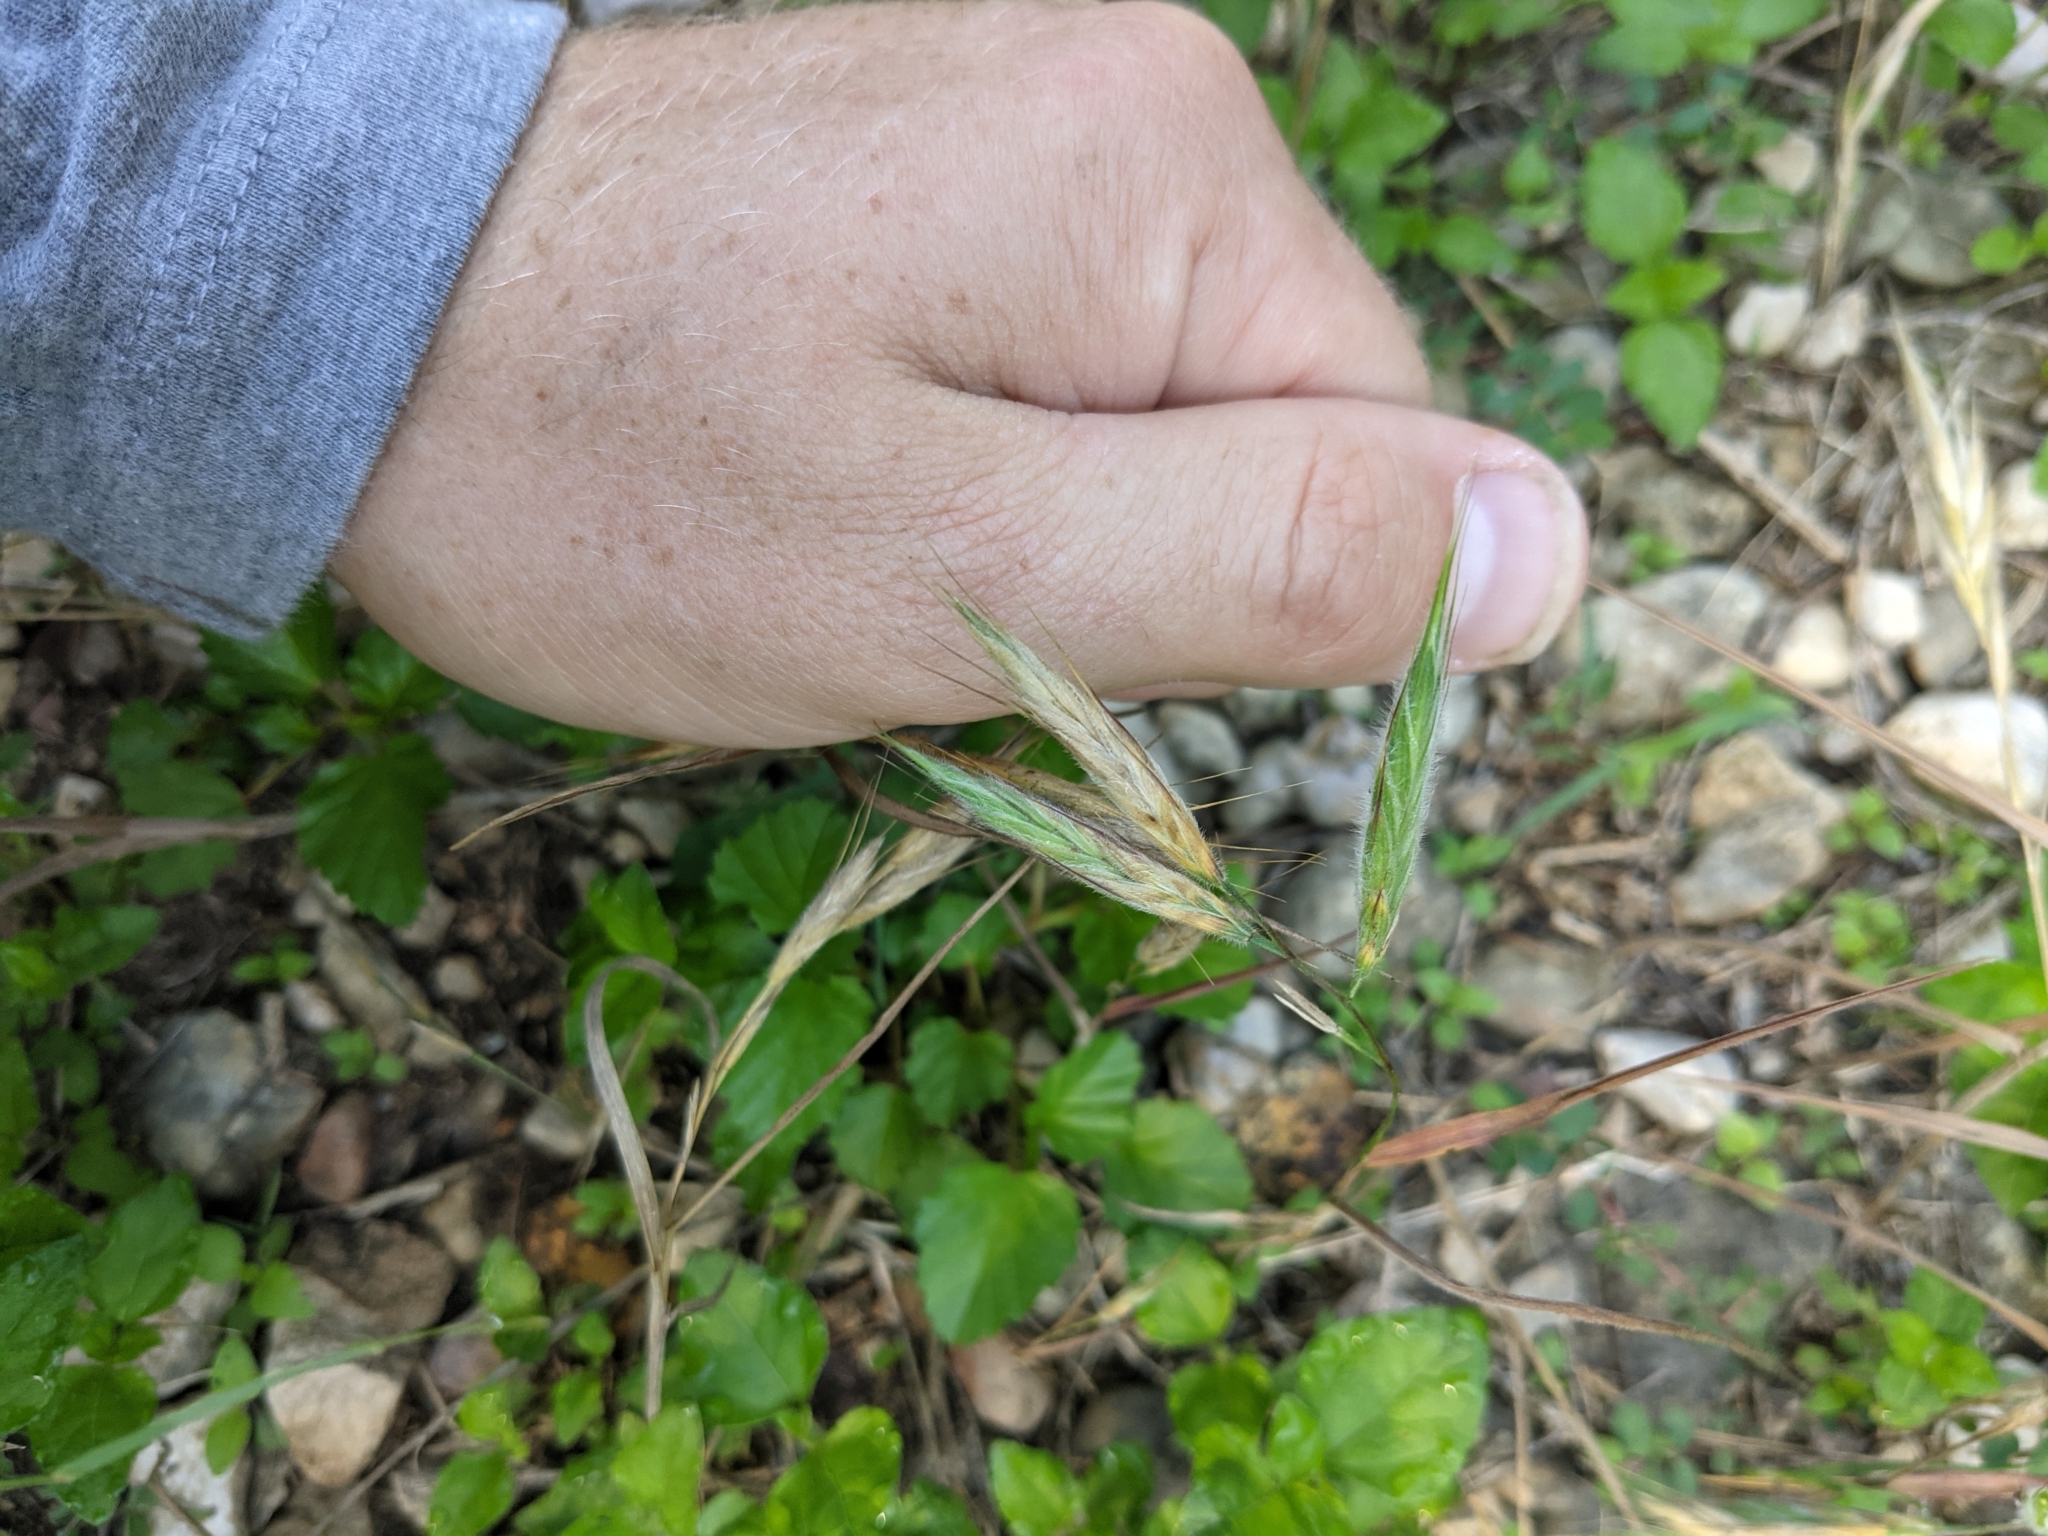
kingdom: Plantae
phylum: Tracheophyta
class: Liliopsida
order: Poales
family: Poaceae
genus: Bromus
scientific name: Bromus lanceolatus
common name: Mediterranean brome
